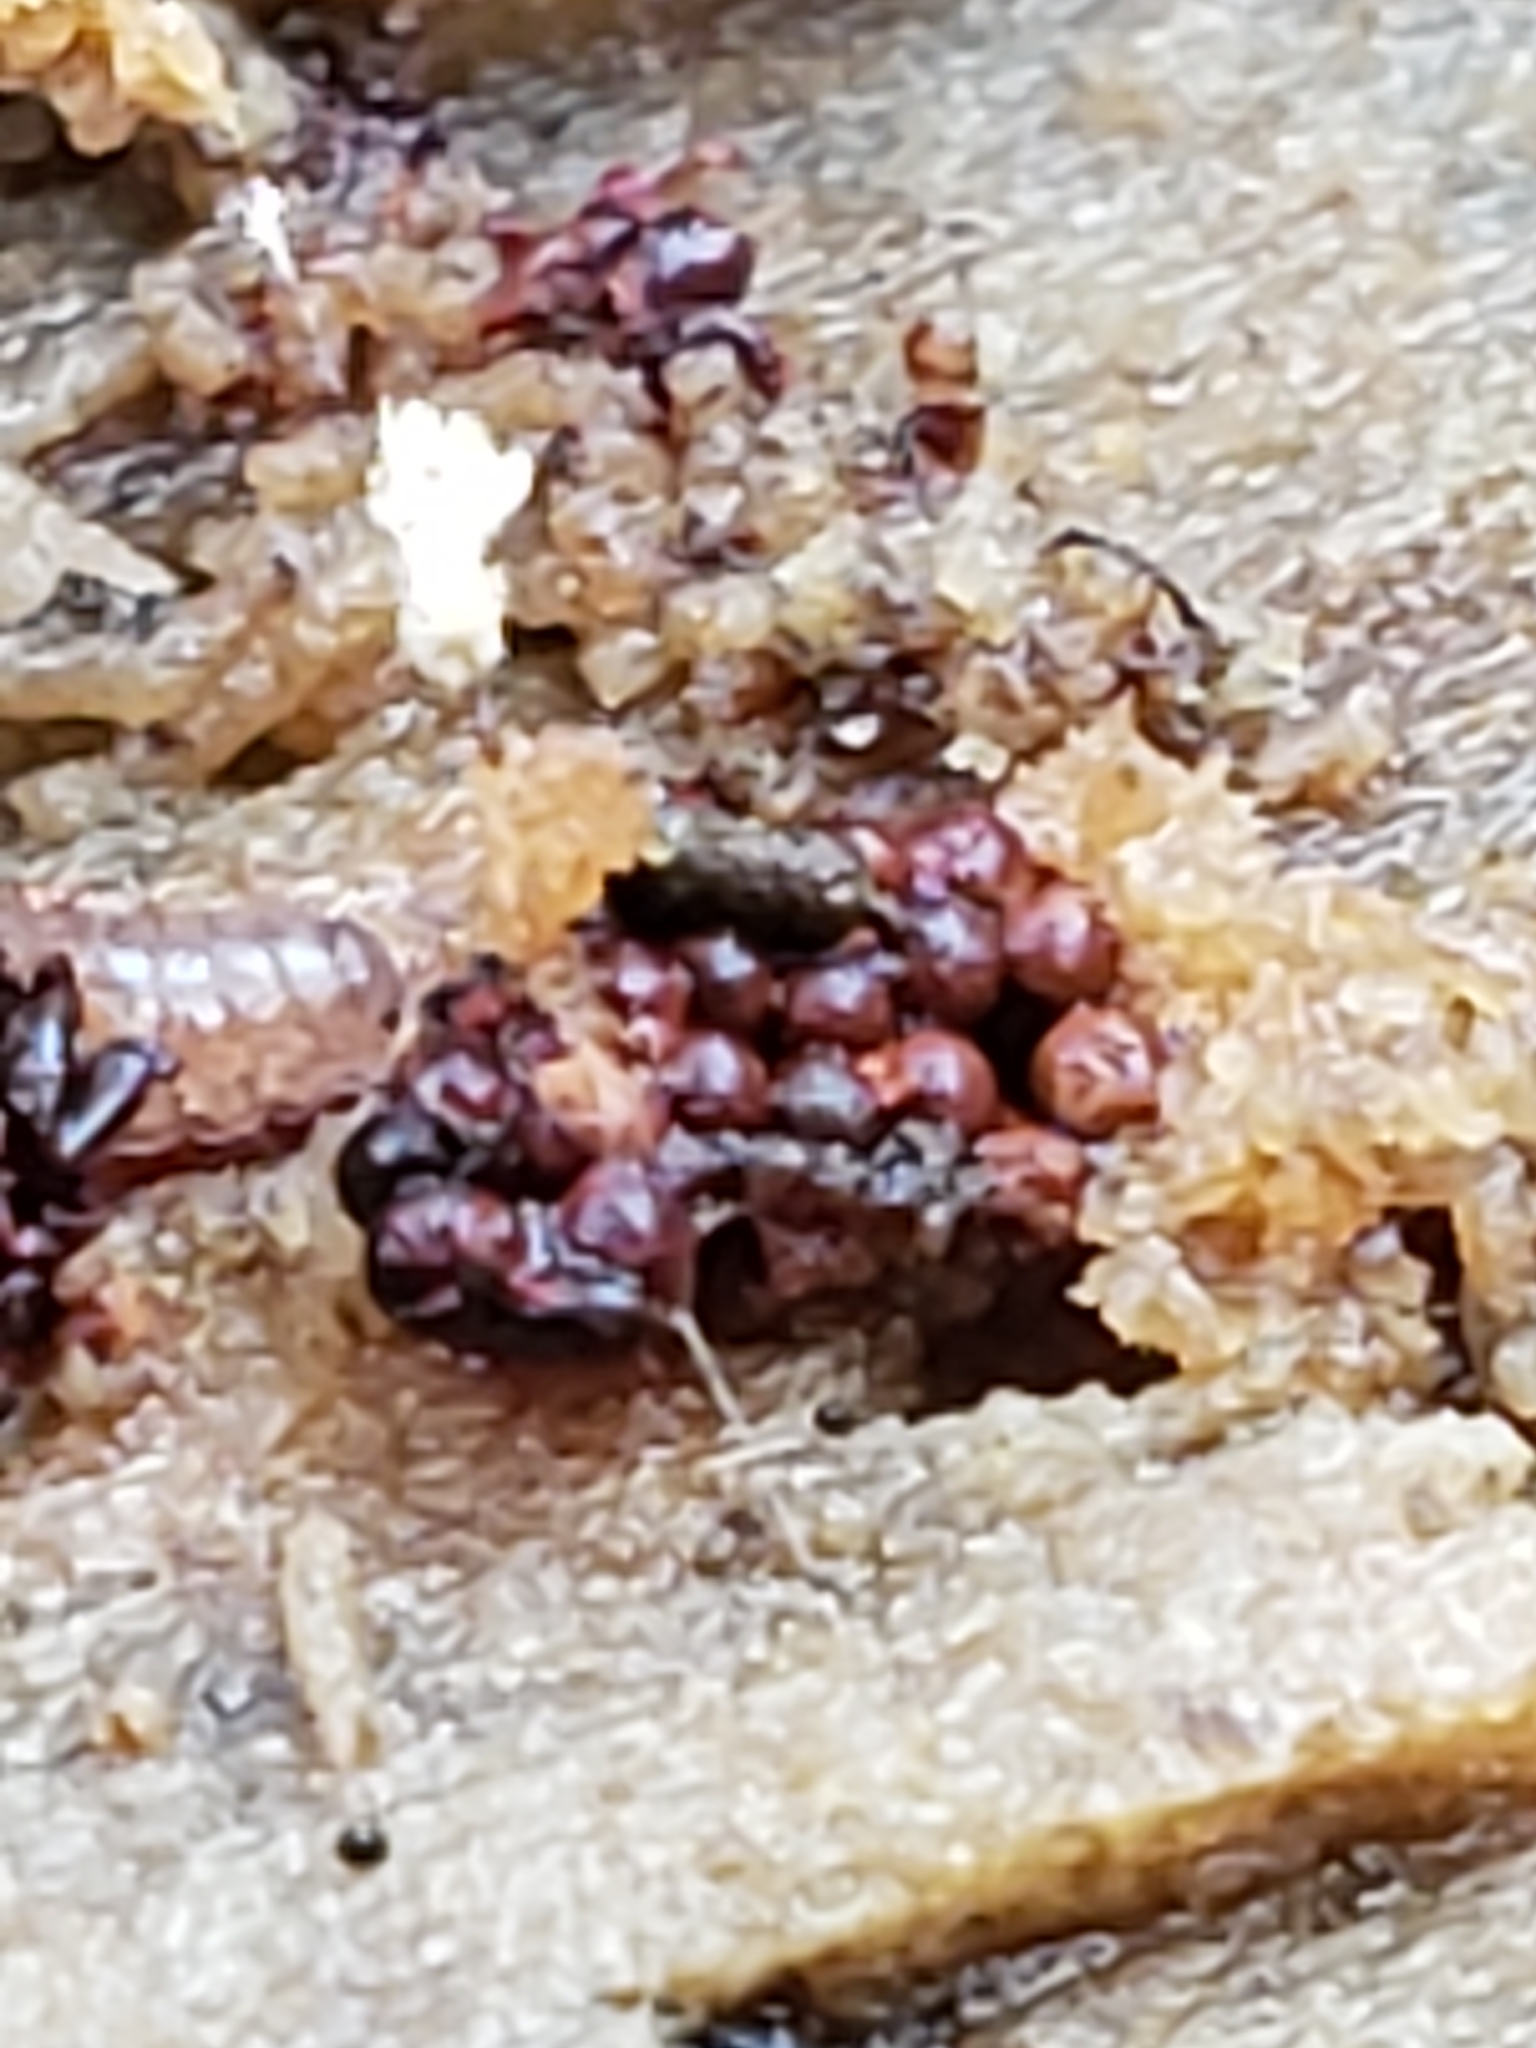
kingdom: Protozoa
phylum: Mycetozoa
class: Myxomycetes
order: Trichiales
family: Trichiaceae
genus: Metatrichia
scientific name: Metatrichia vesparia
